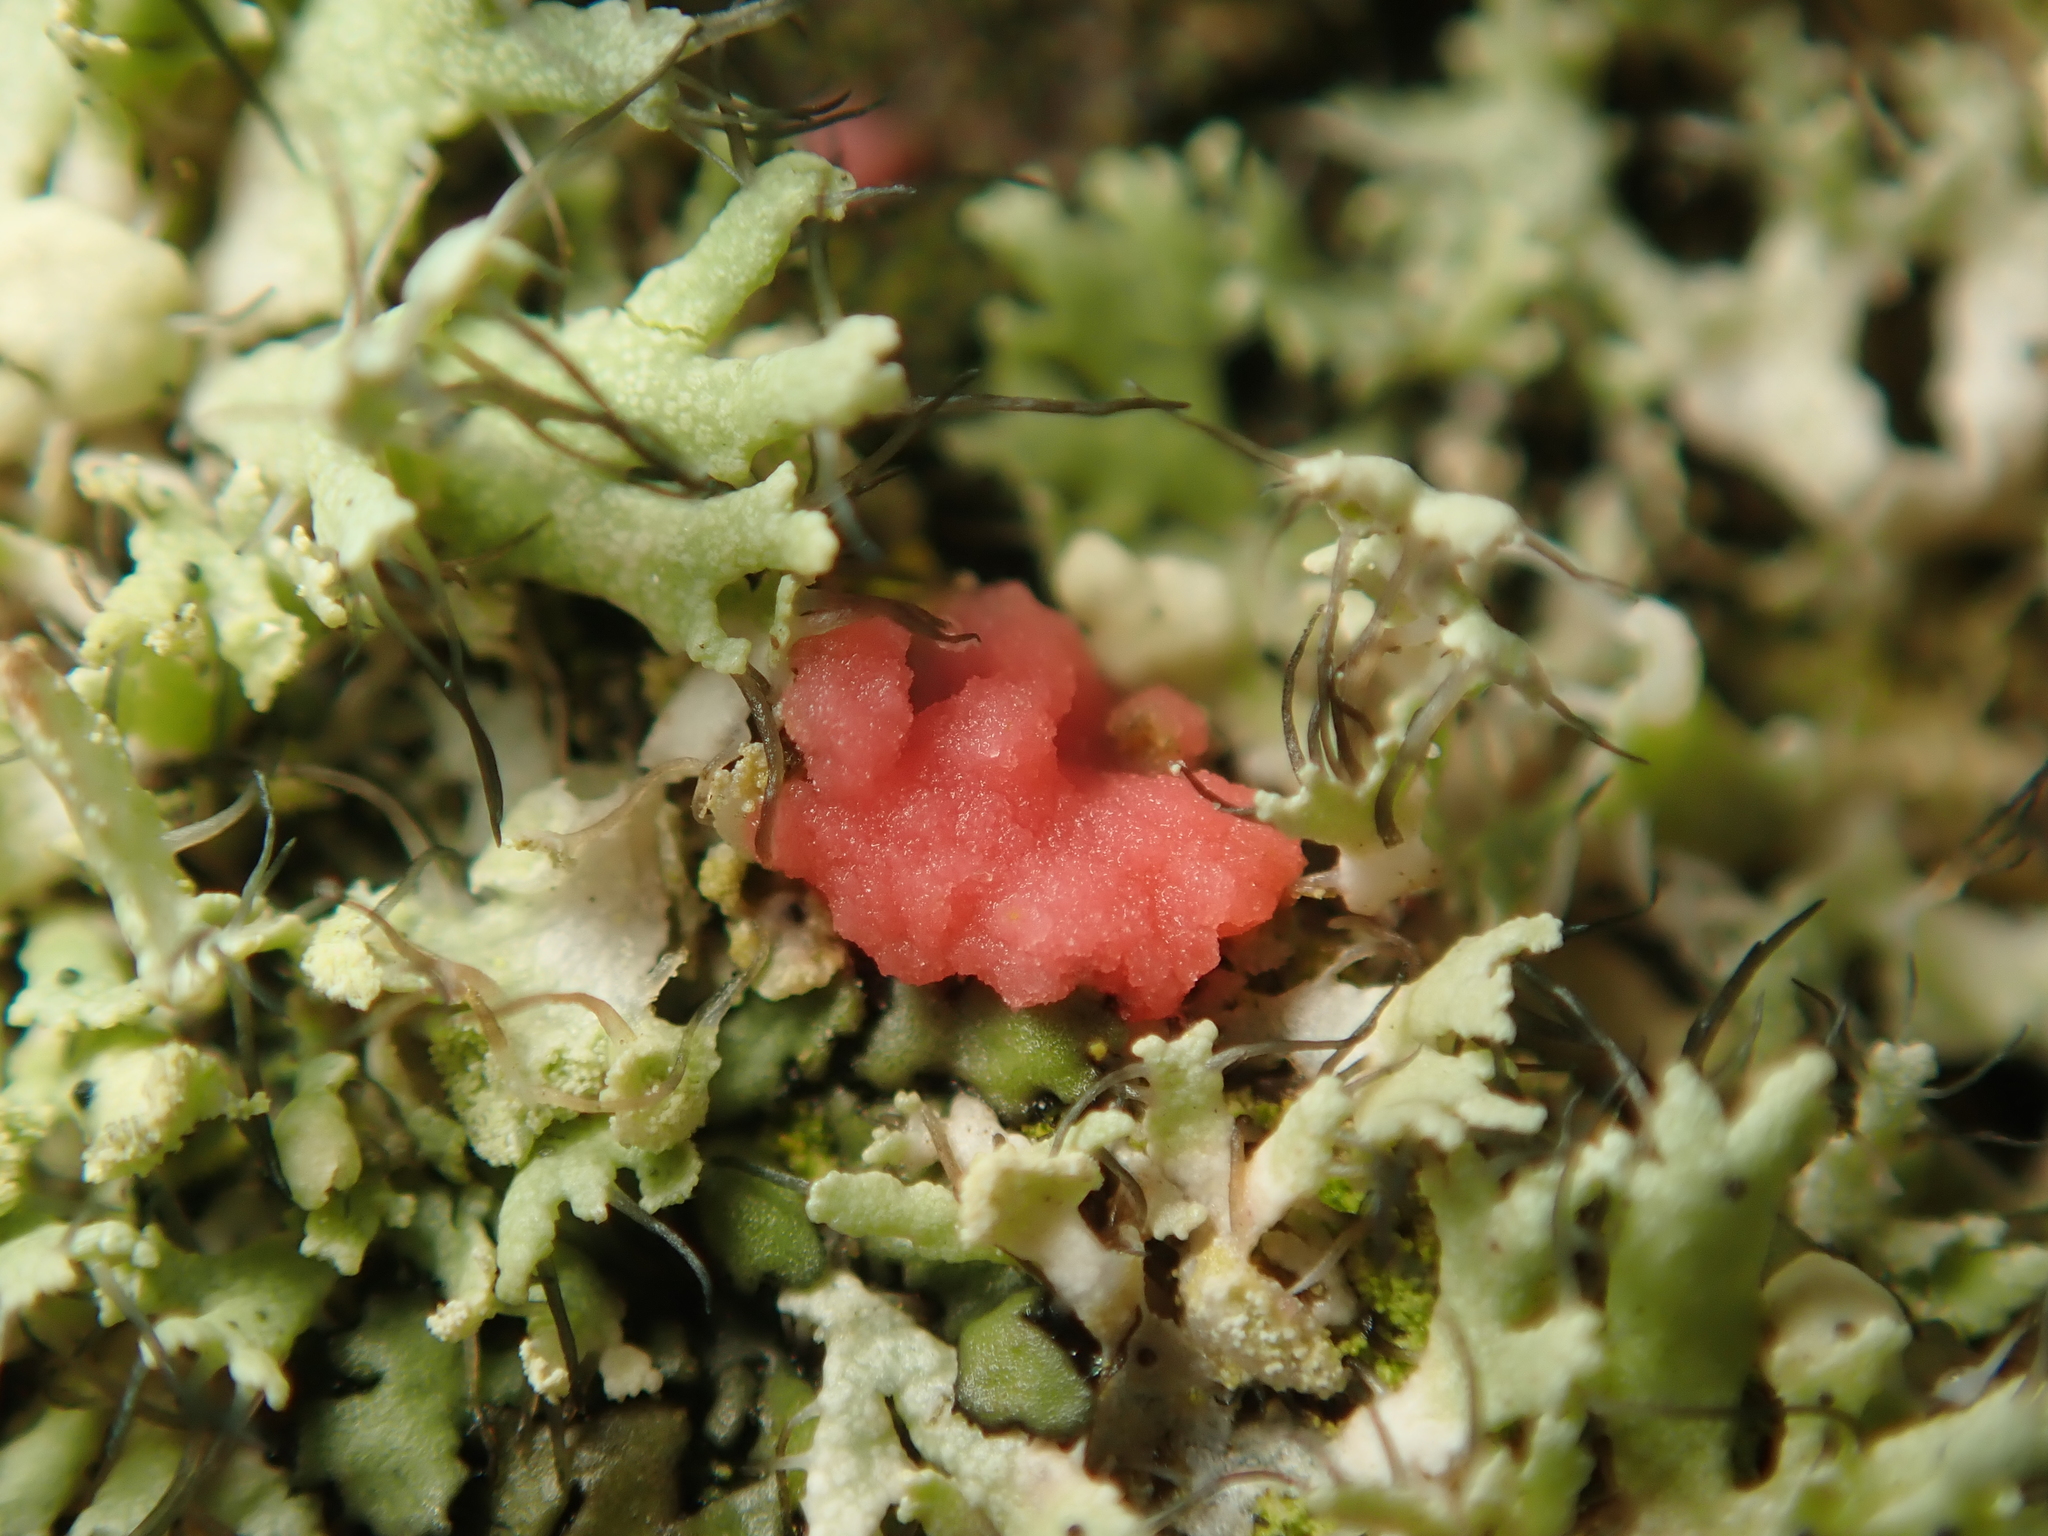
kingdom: Fungi
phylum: Ascomycota
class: Sordariomycetes
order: Hypocreales
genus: Illosporiopsis
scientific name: Illosporiopsis christiansenii
